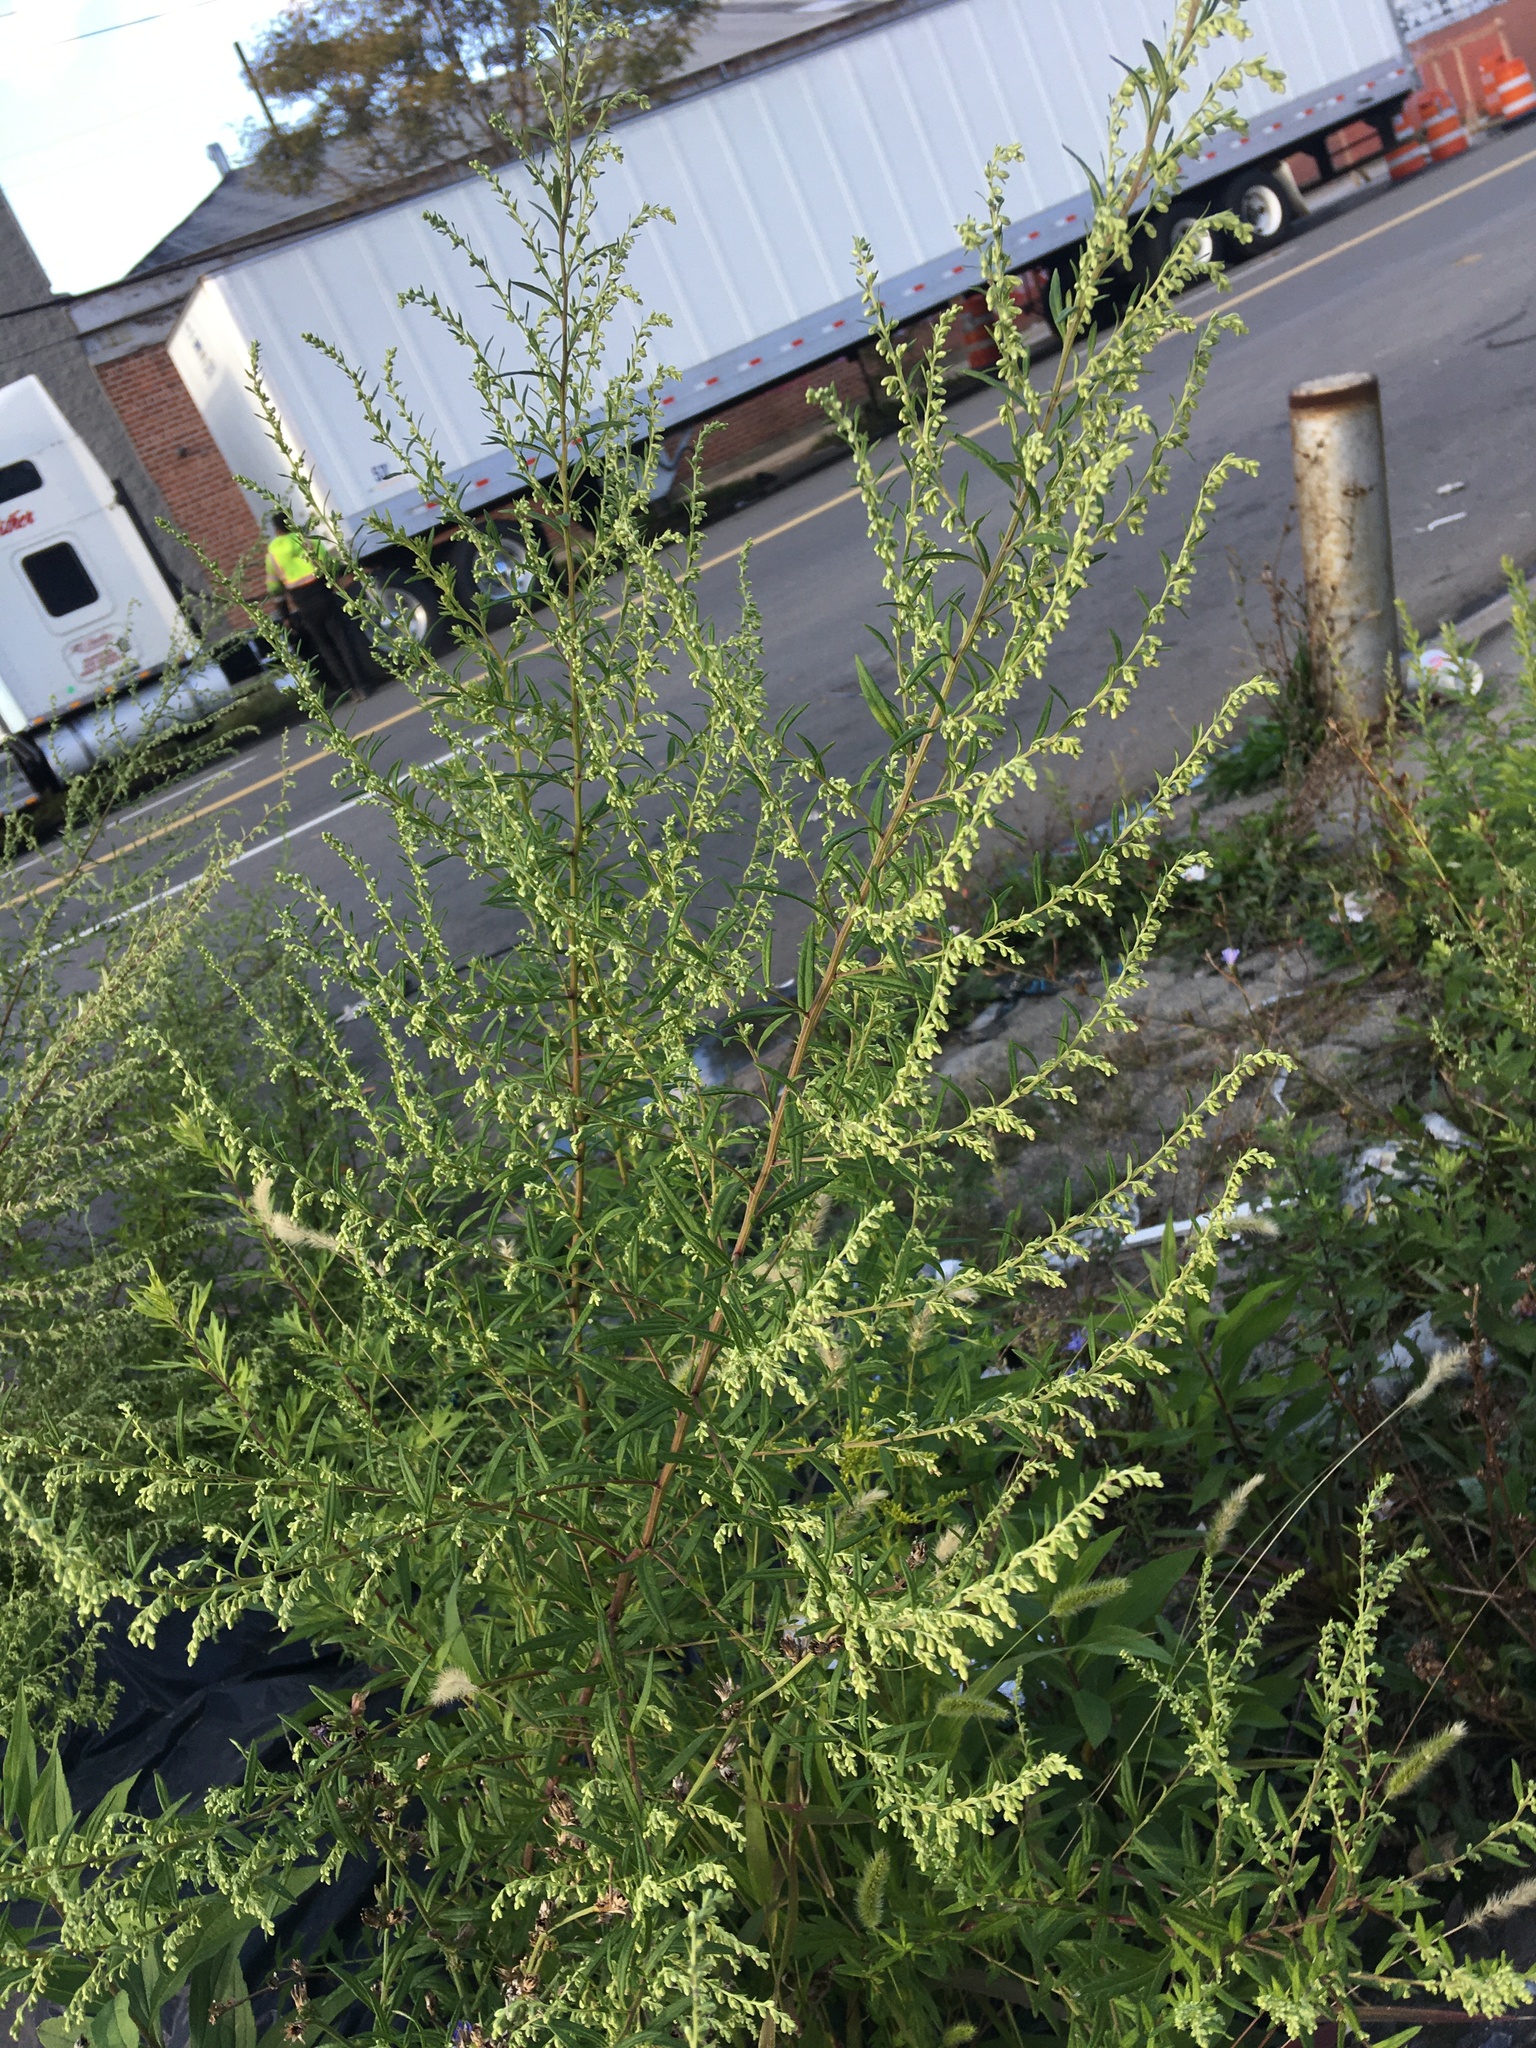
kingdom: Plantae
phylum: Tracheophyta
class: Magnoliopsida
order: Asterales
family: Asteraceae
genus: Artemisia
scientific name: Artemisia vulgaris
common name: Mugwort
